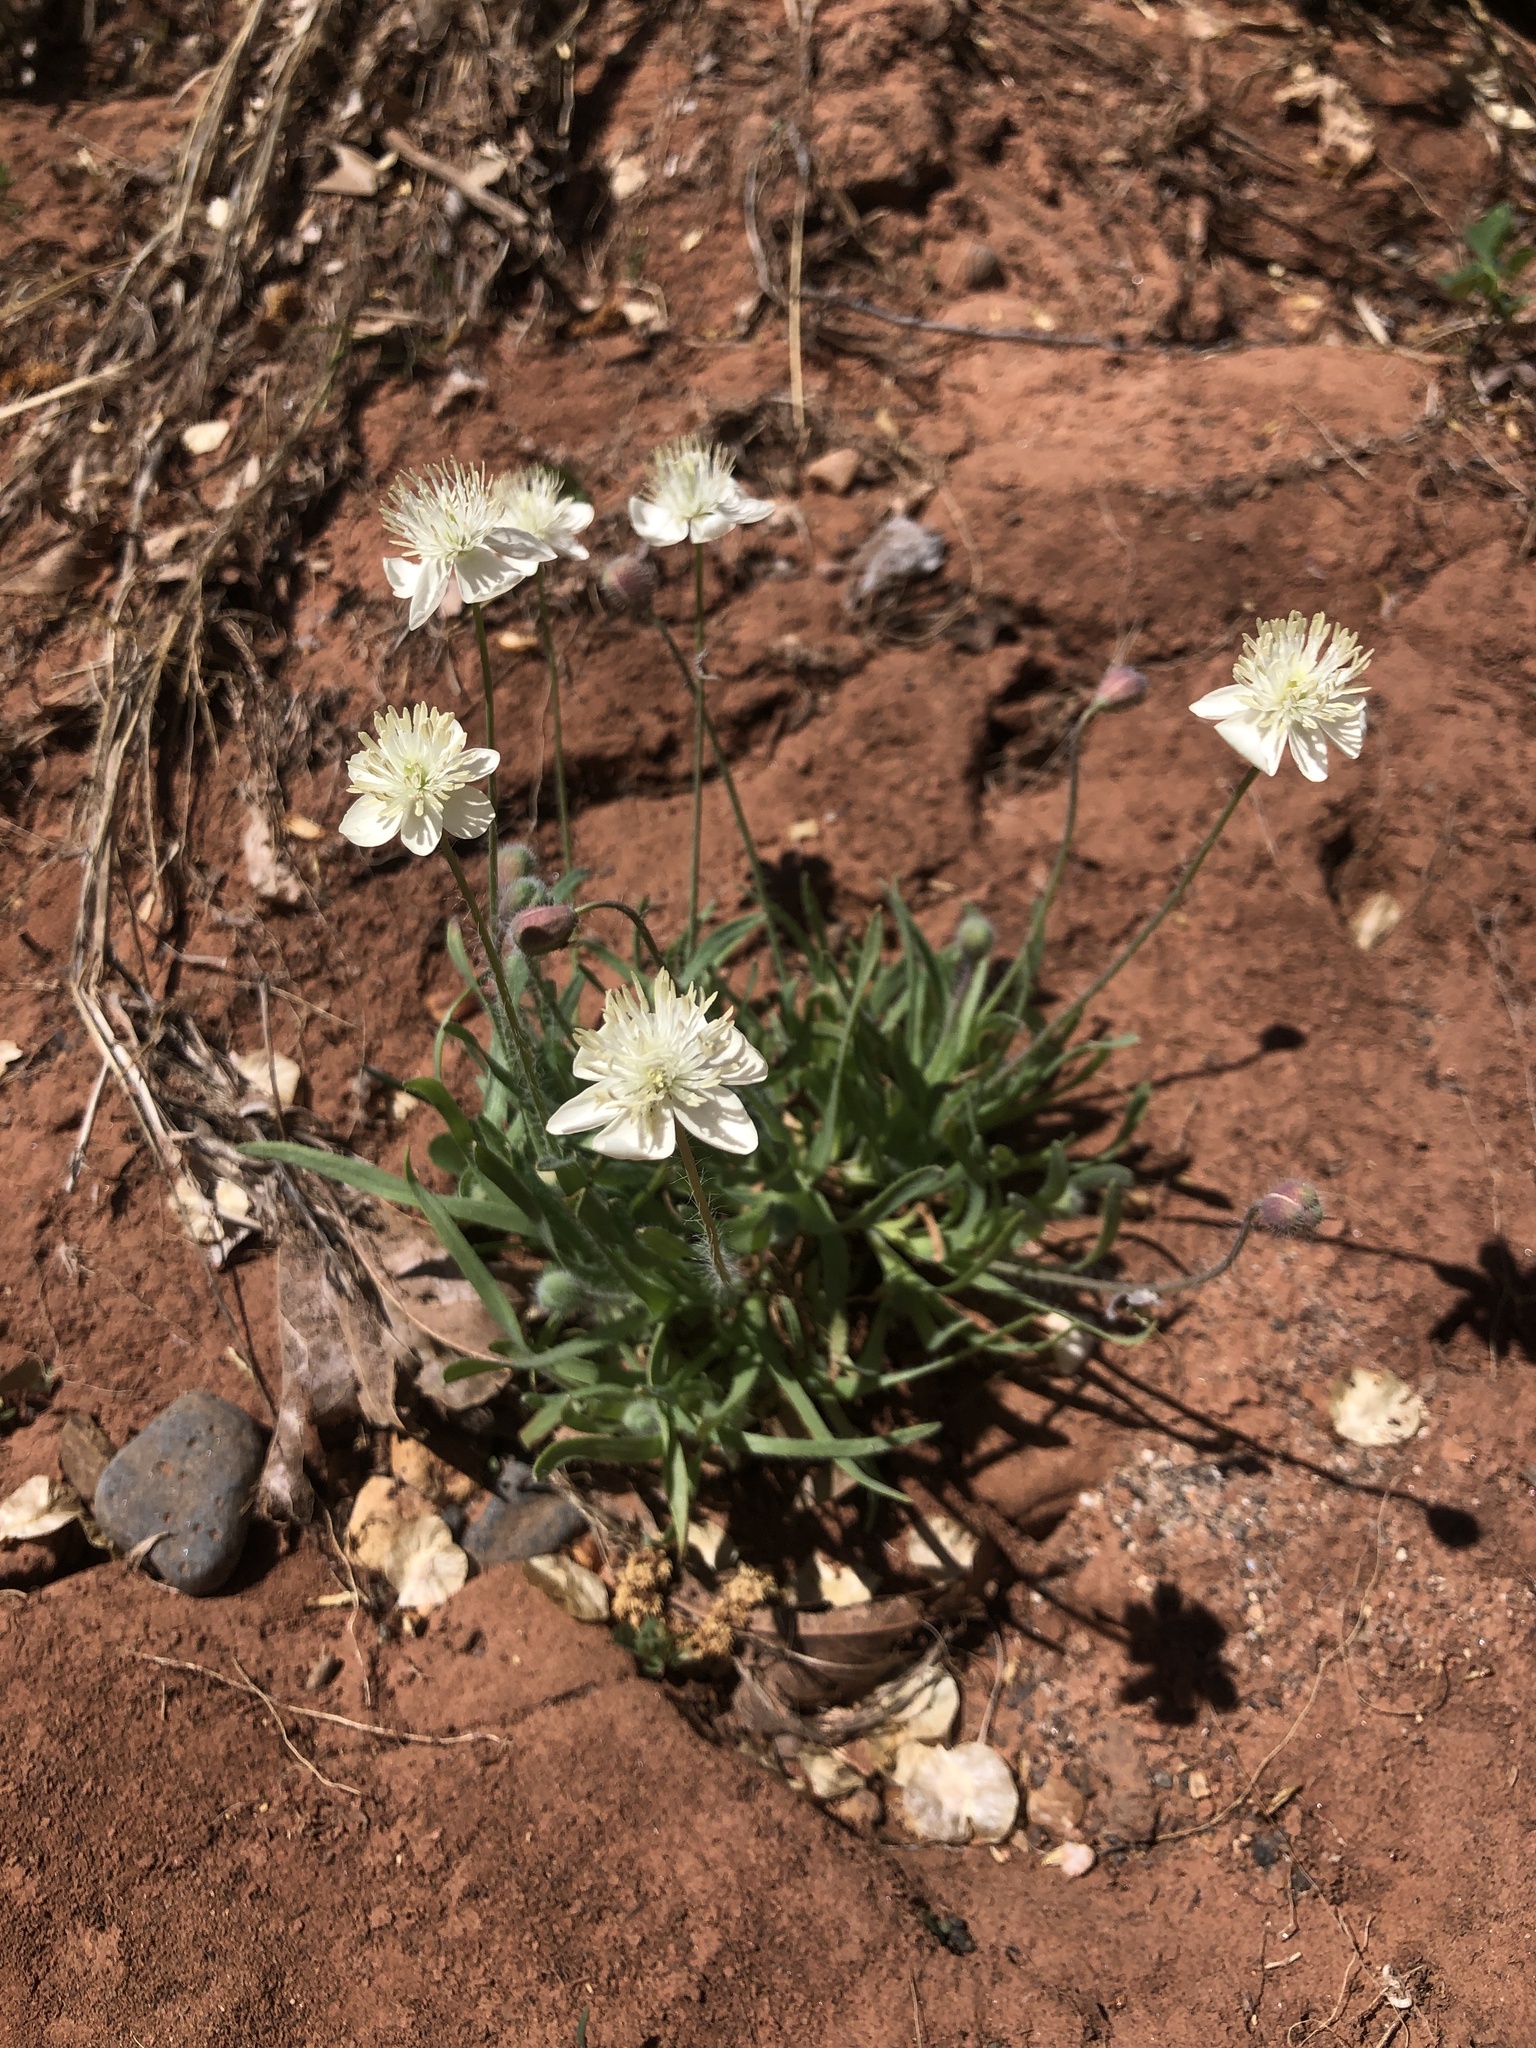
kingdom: Plantae
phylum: Tracheophyta
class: Magnoliopsida
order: Ranunculales
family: Papaveraceae
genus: Platystemon
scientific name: Platystemon californicus
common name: Cream-cups
